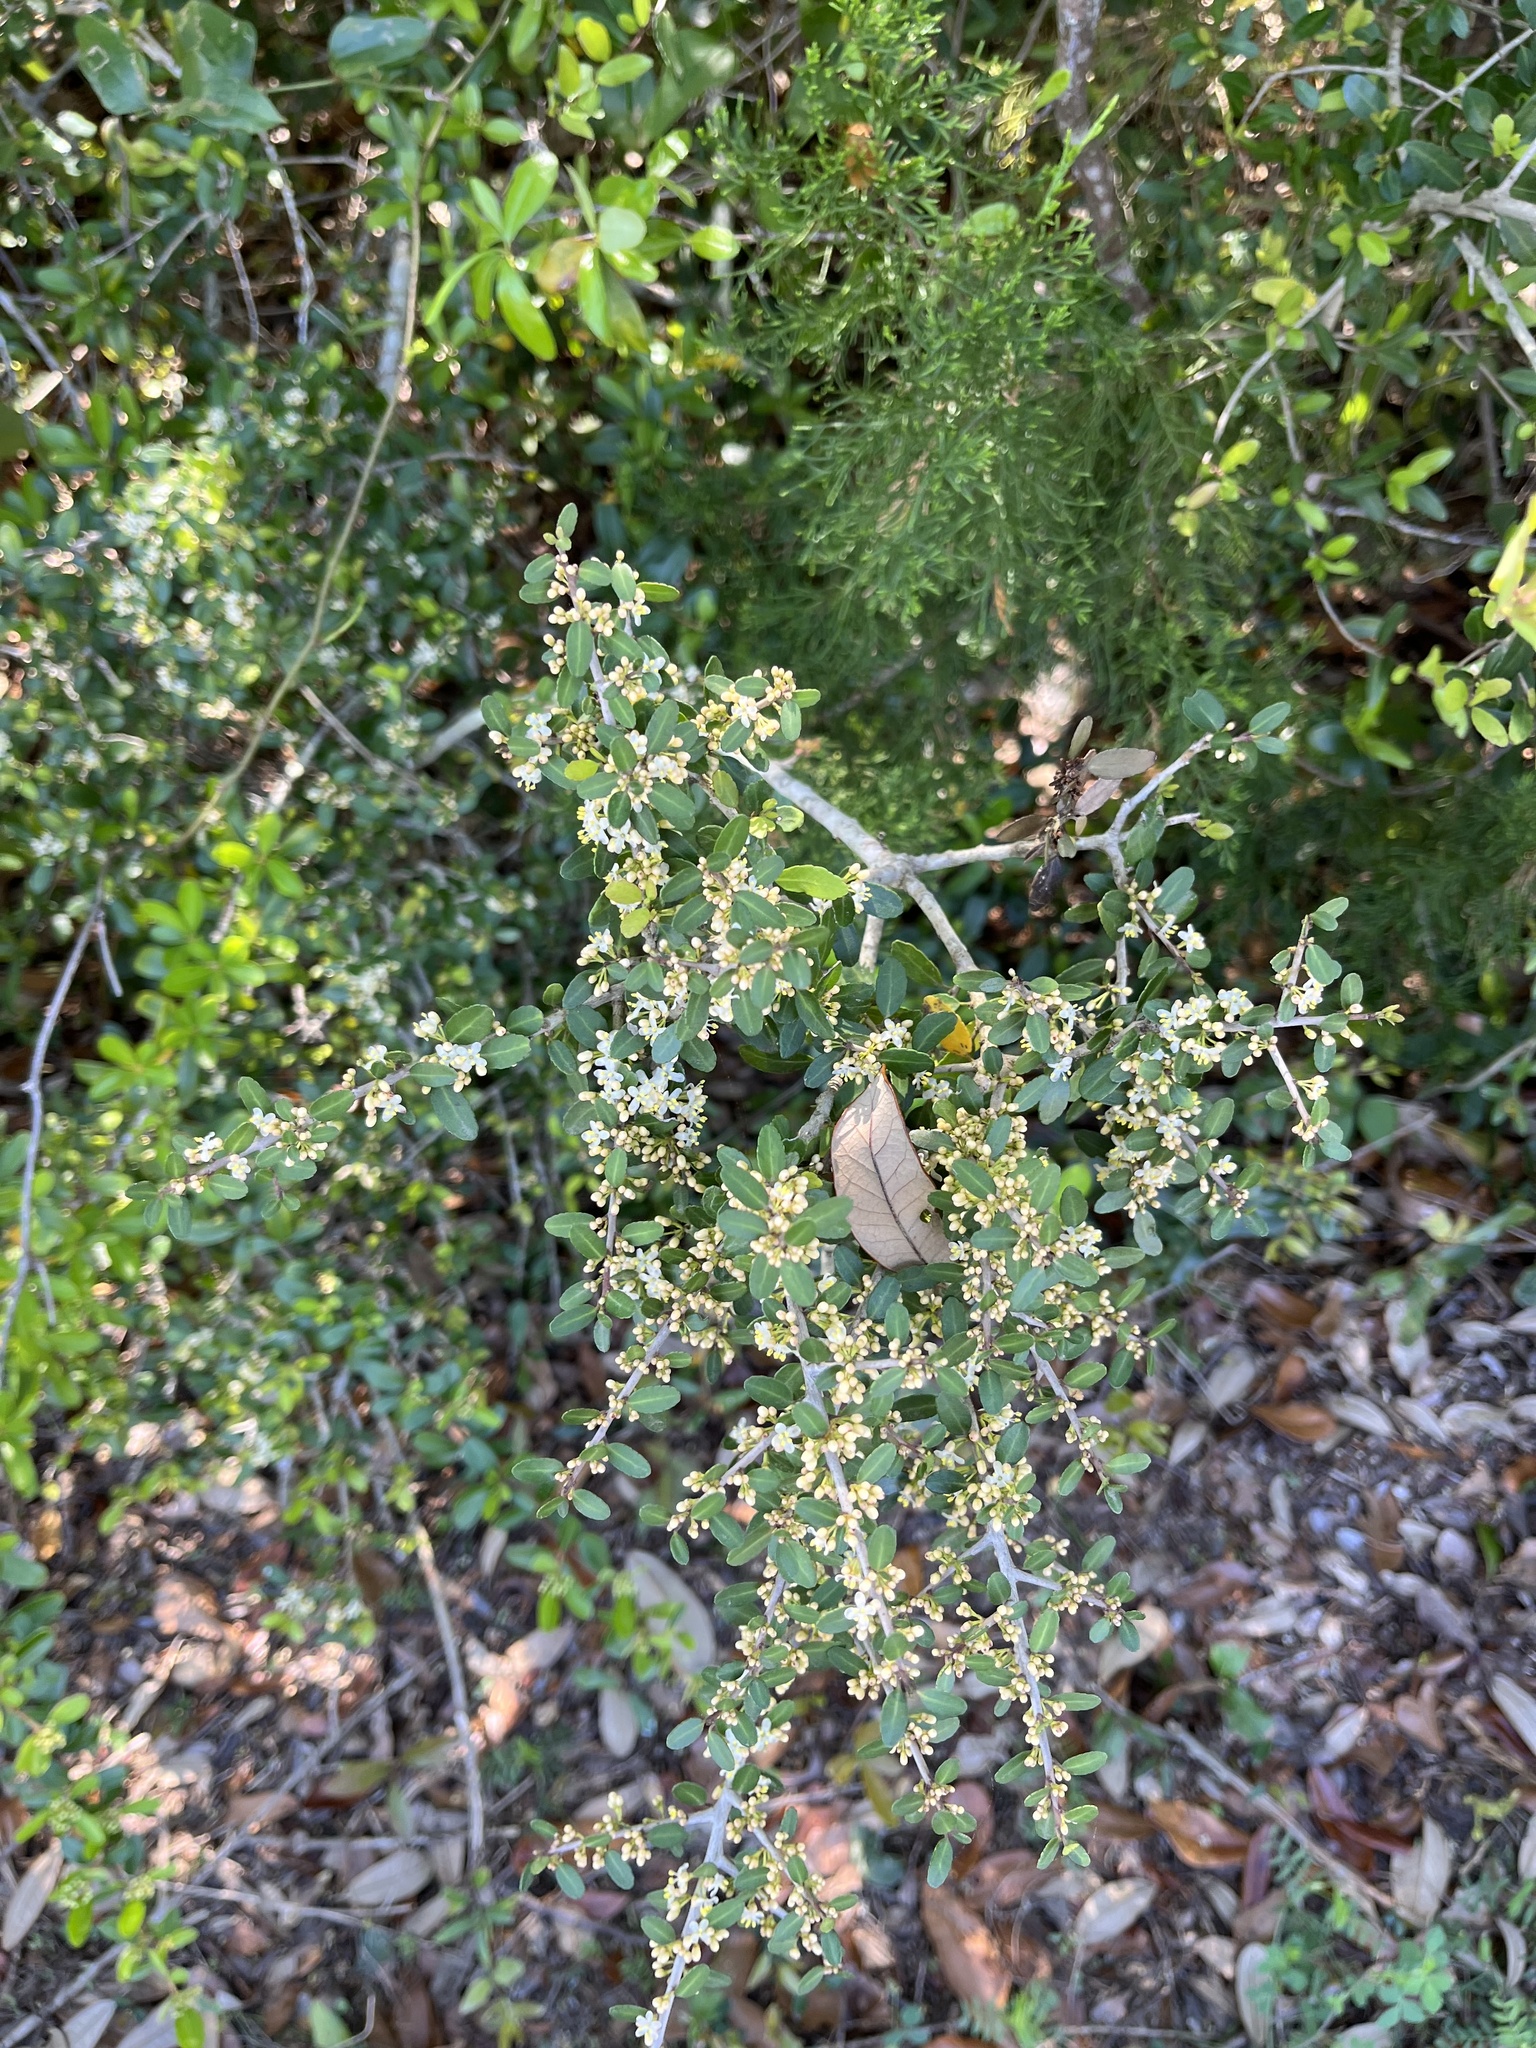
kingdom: Plantae
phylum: Tracheophyta
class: Magnoliopsida
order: Aquifoliales
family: Aquifoliaceae
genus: Ilex
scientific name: Ilex vomitoria
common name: Yaupon holly
